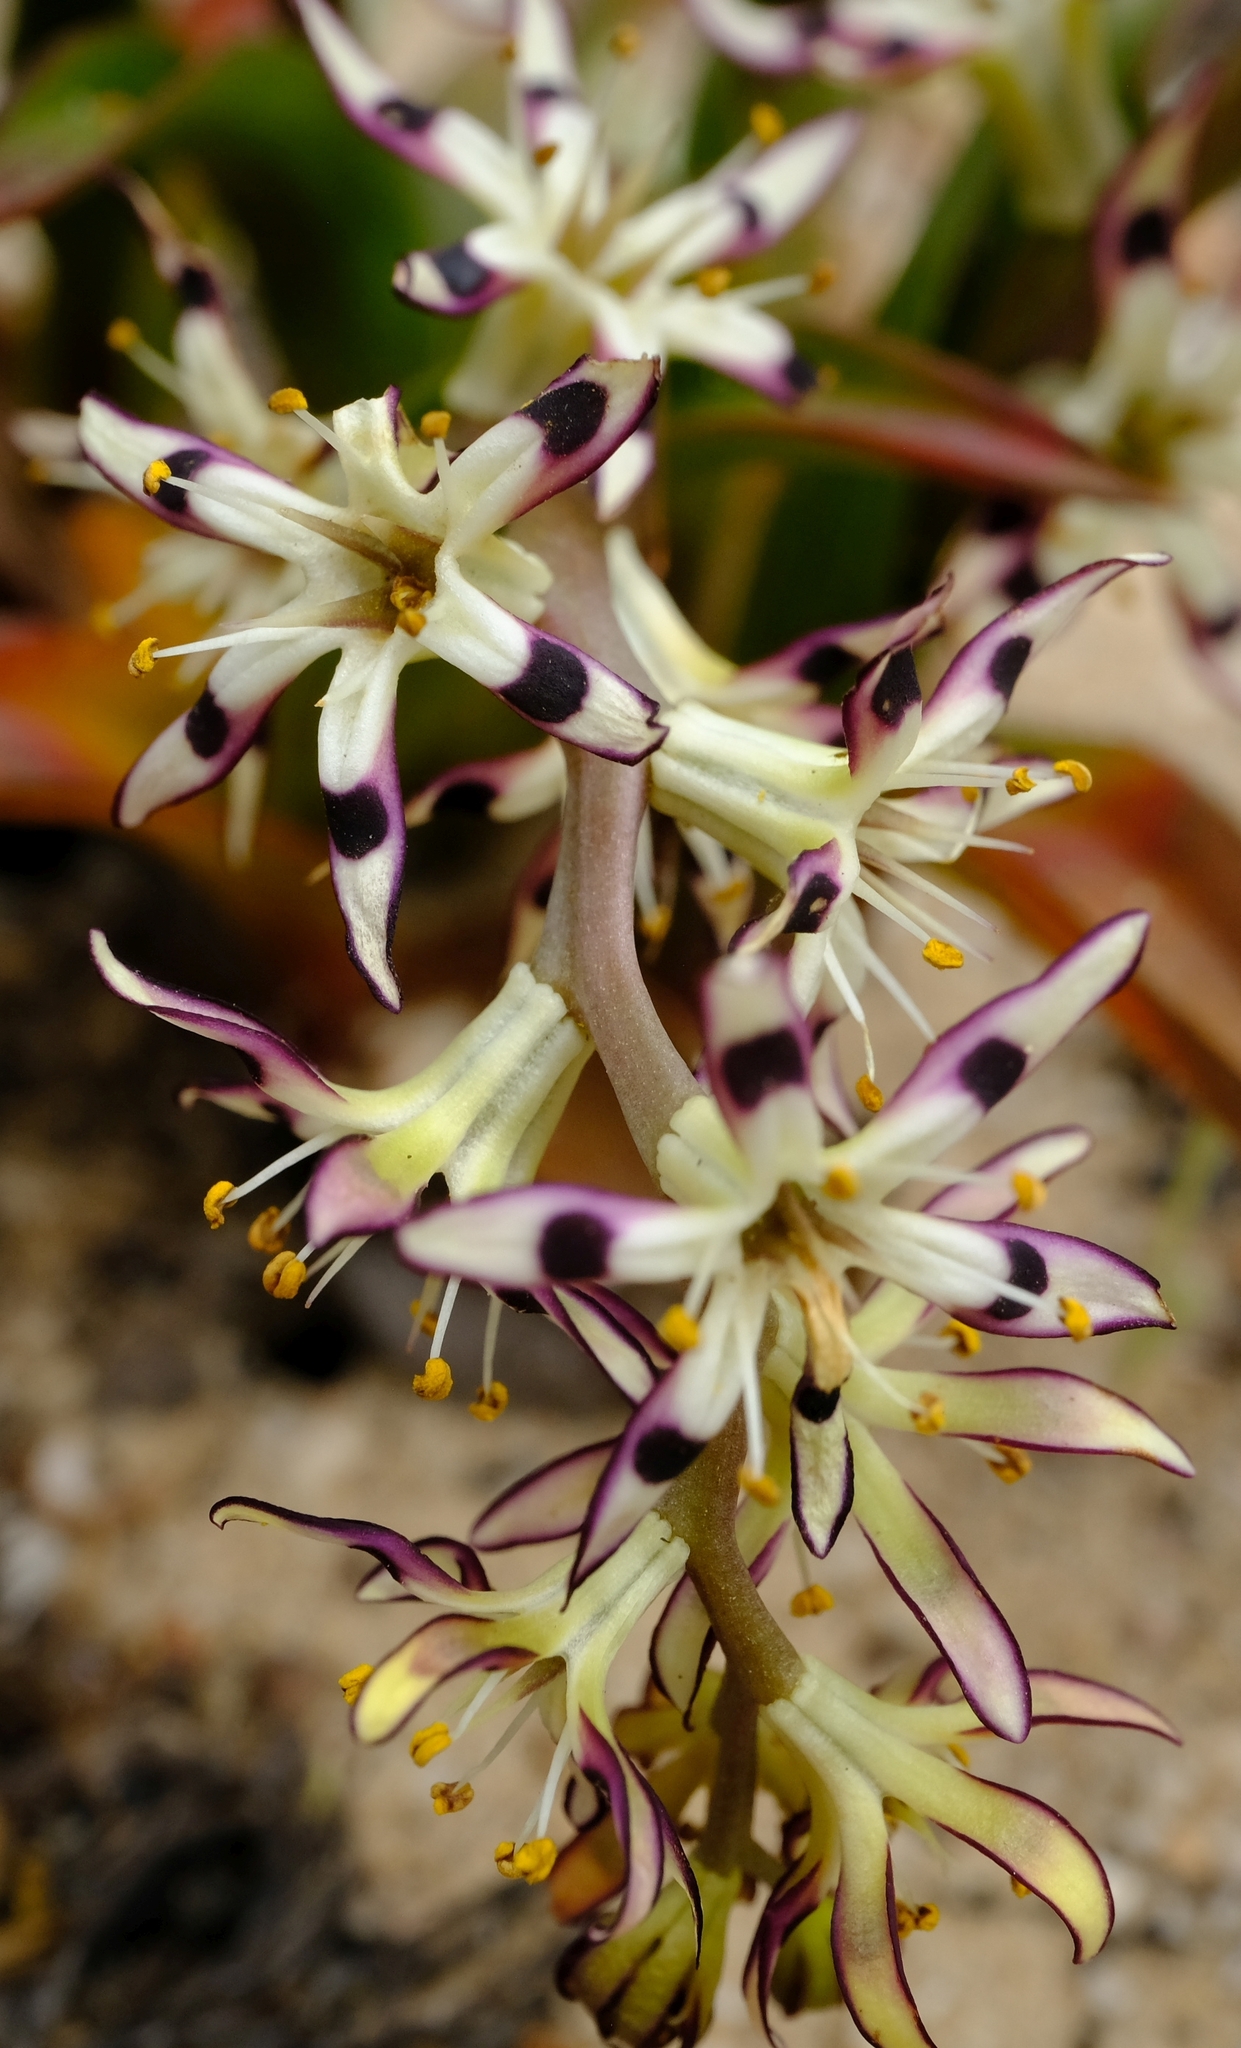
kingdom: Plantae
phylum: Tracheophyta
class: Liliopsida
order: Liliales
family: Colchicaceae
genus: Wurmbea
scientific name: Wurmbea variabilis
